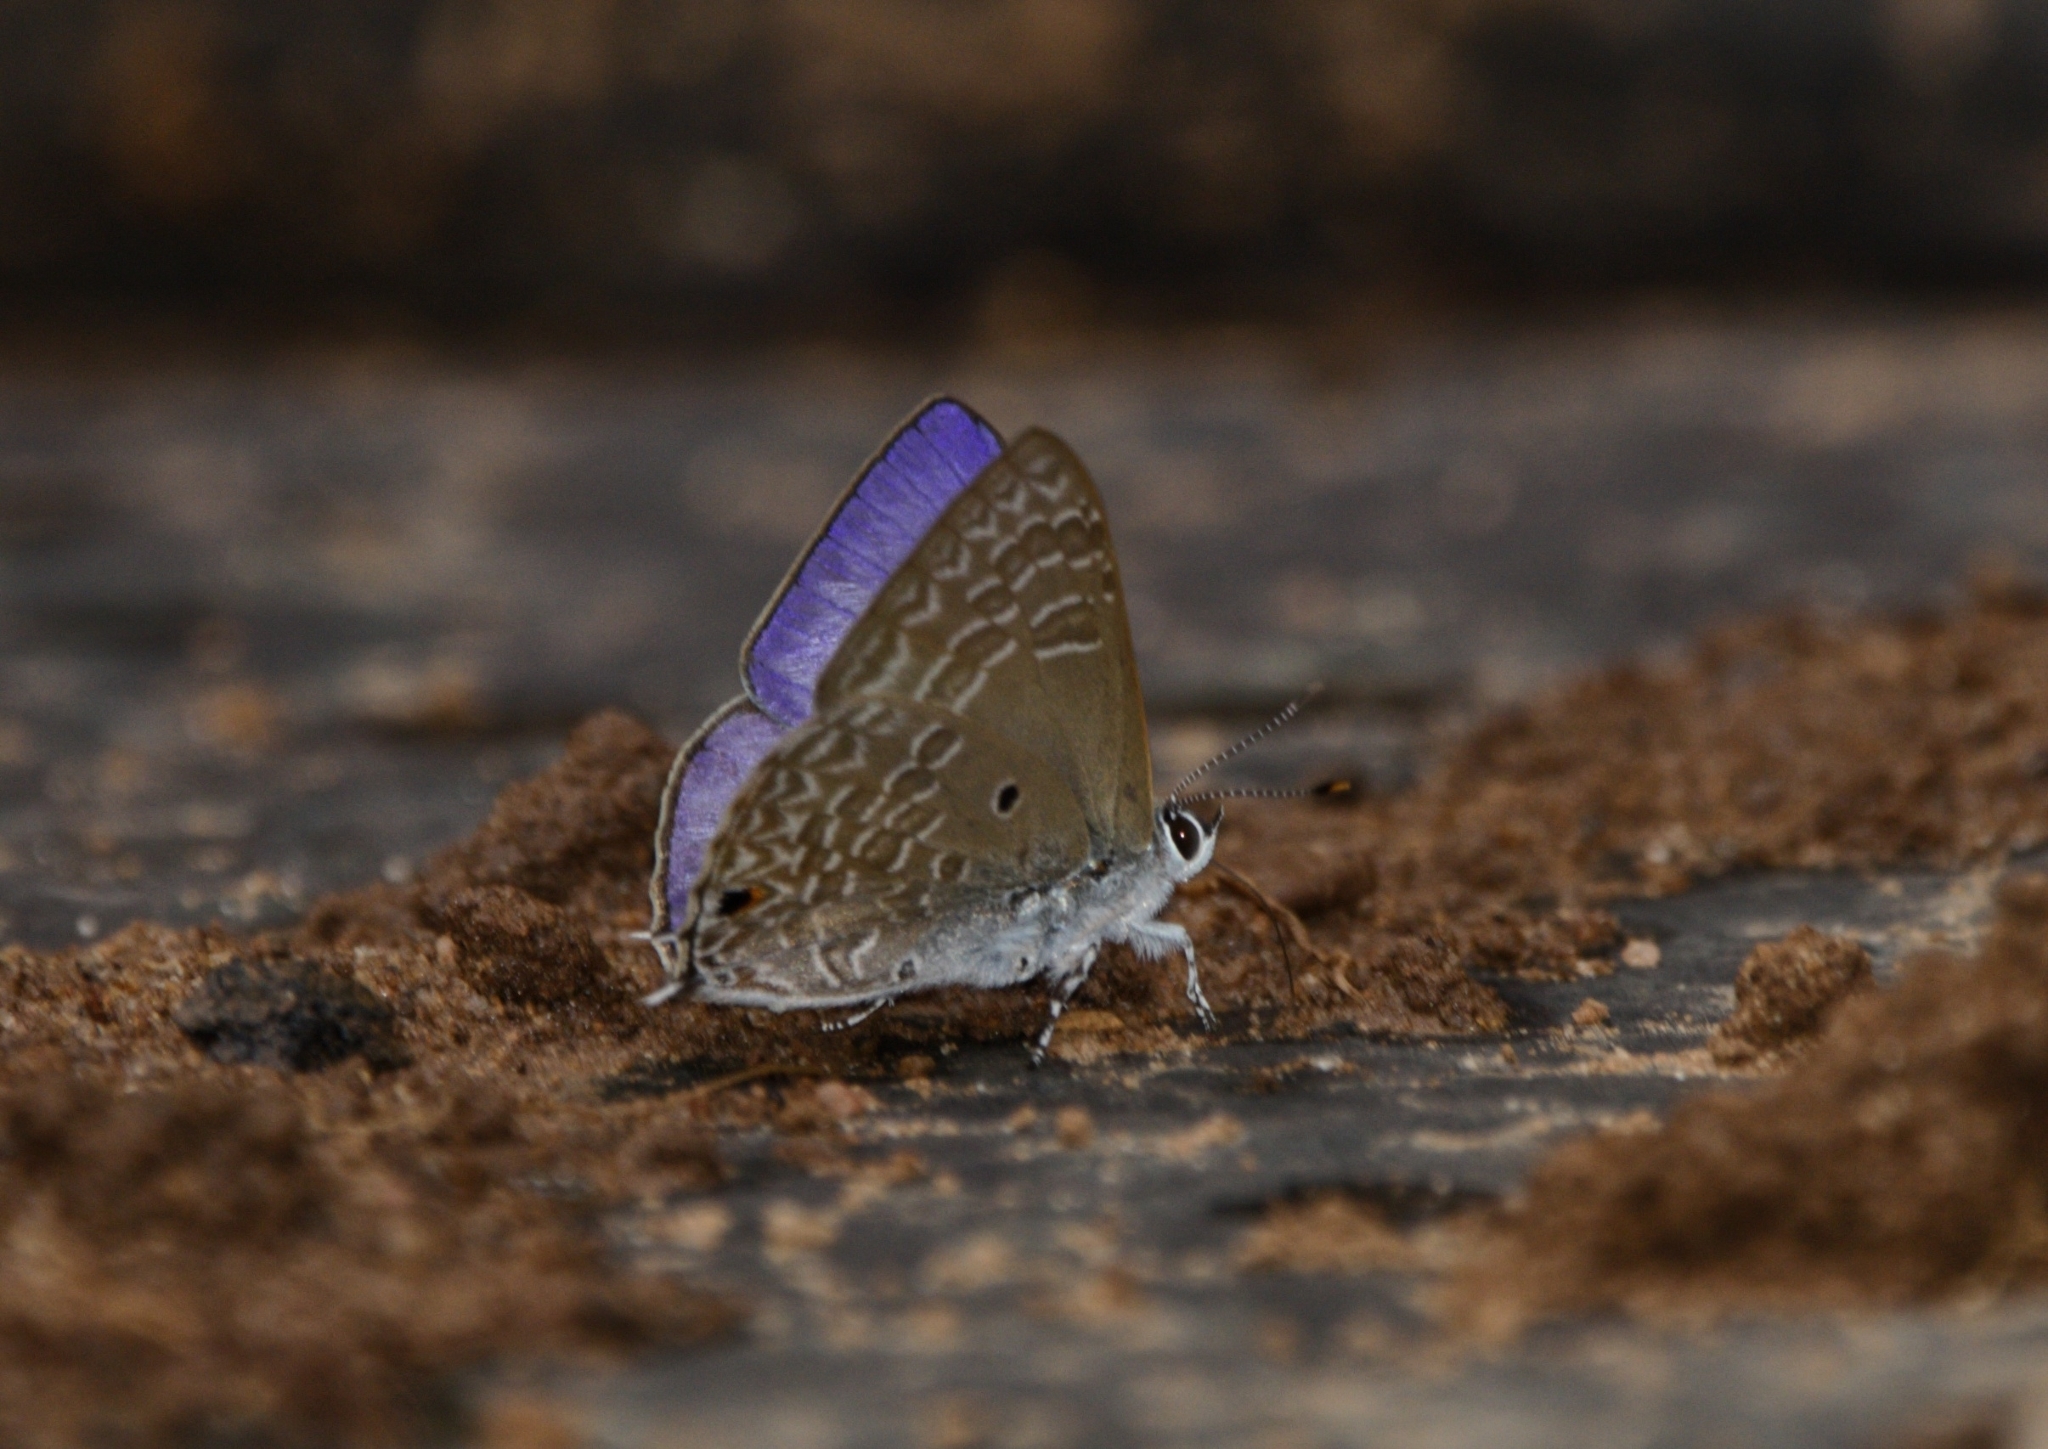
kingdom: Animalia
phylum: Arthropoda
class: Insecta
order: Lepidoptera
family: Lycaenidae
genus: Anthene
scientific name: Anthene emolus
